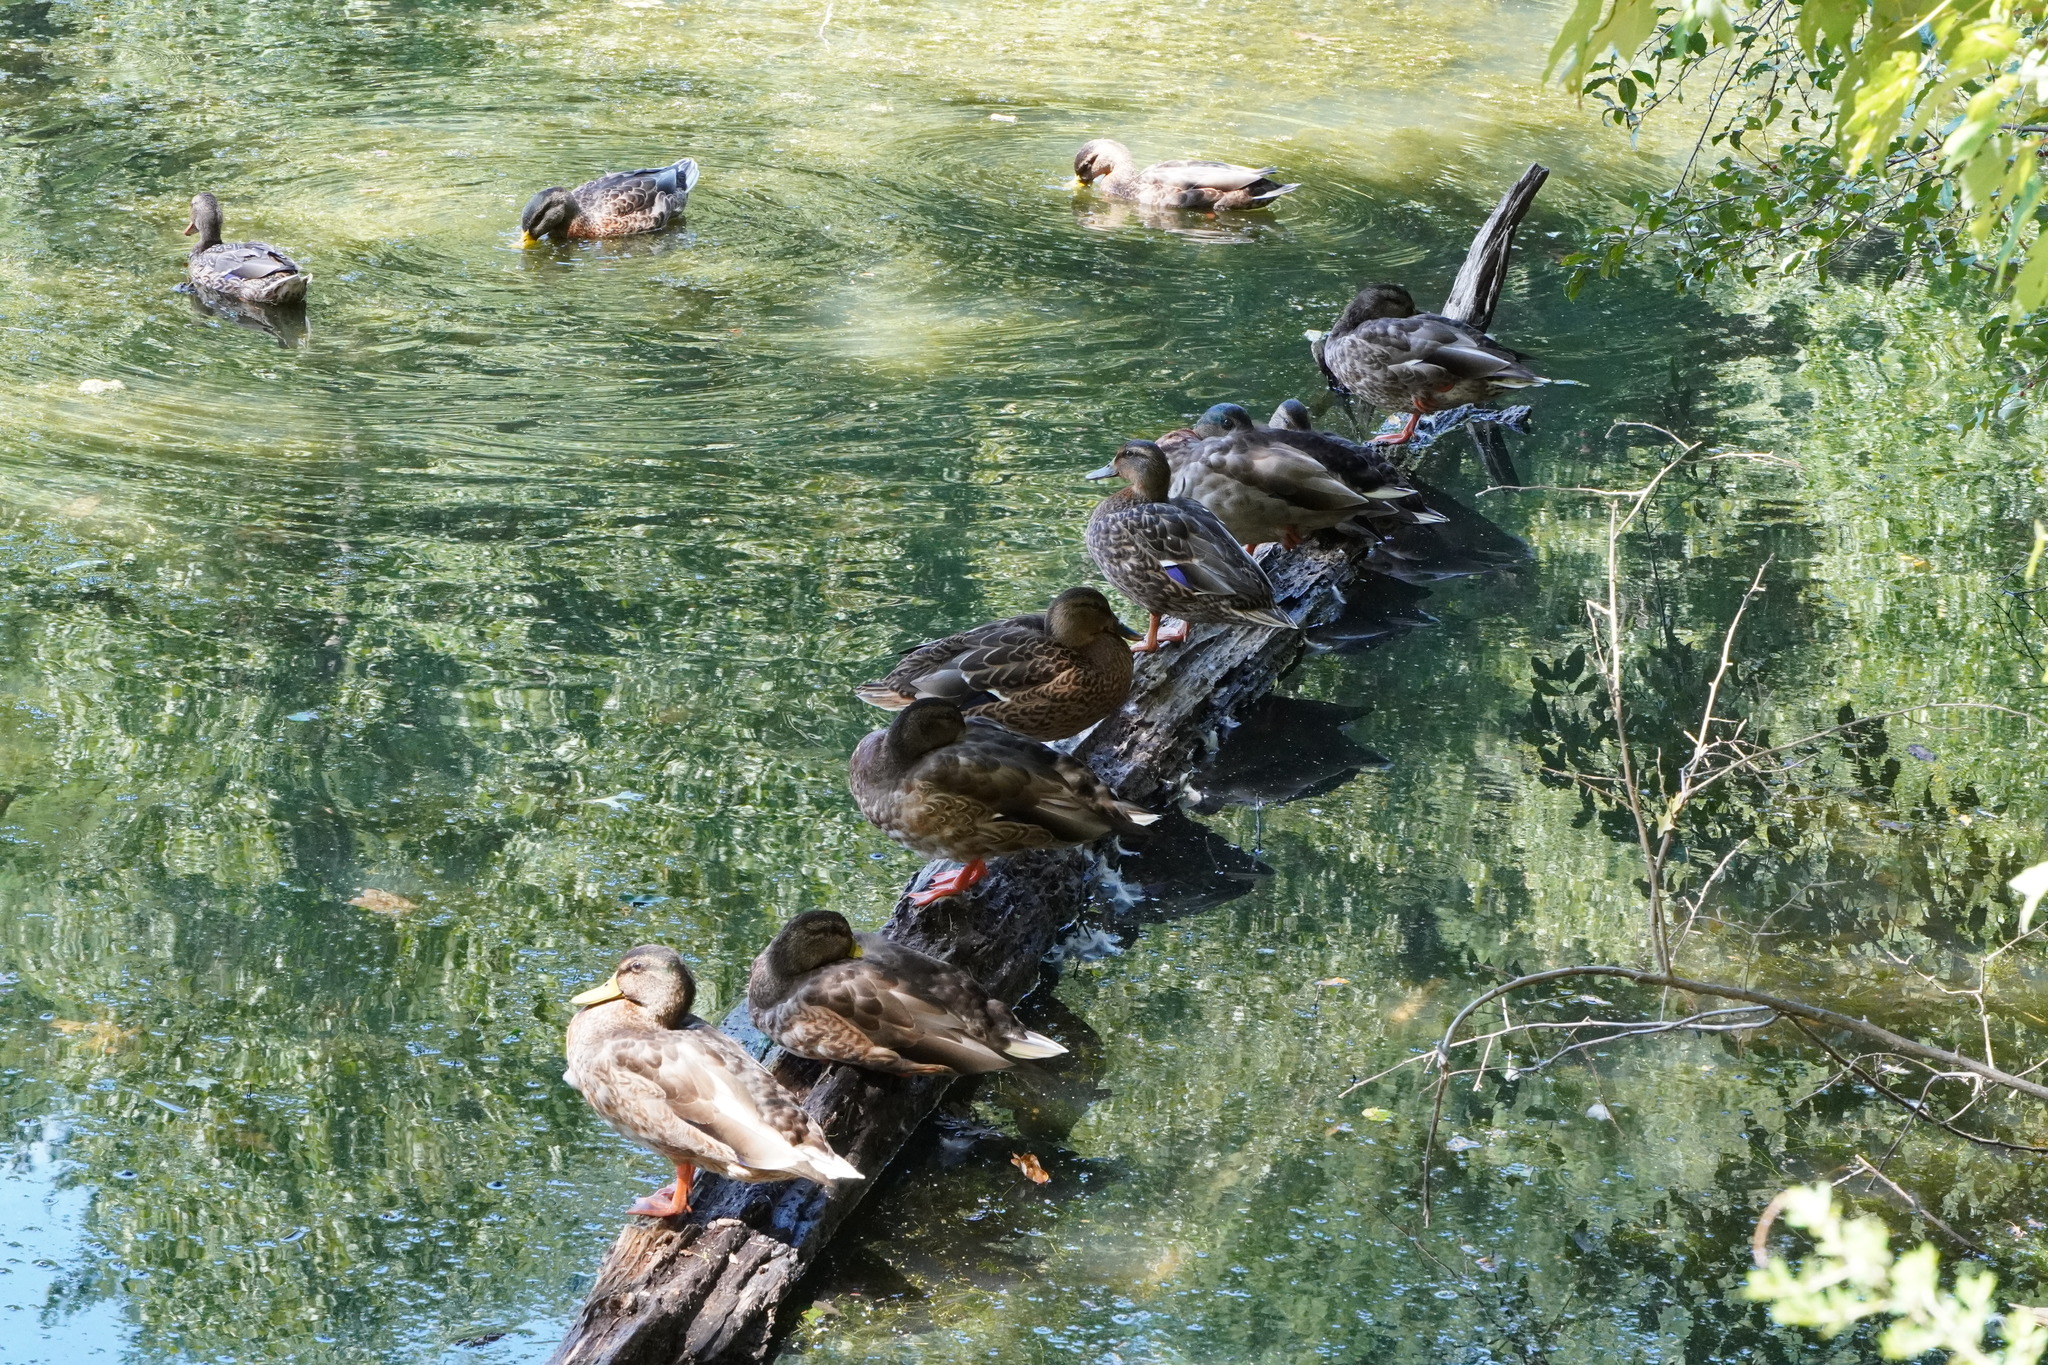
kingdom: Animalia
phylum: Chordata
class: Aves
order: Anseriformes
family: Anatidae
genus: Anas
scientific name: Anas platyrhynchos
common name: Mallard
